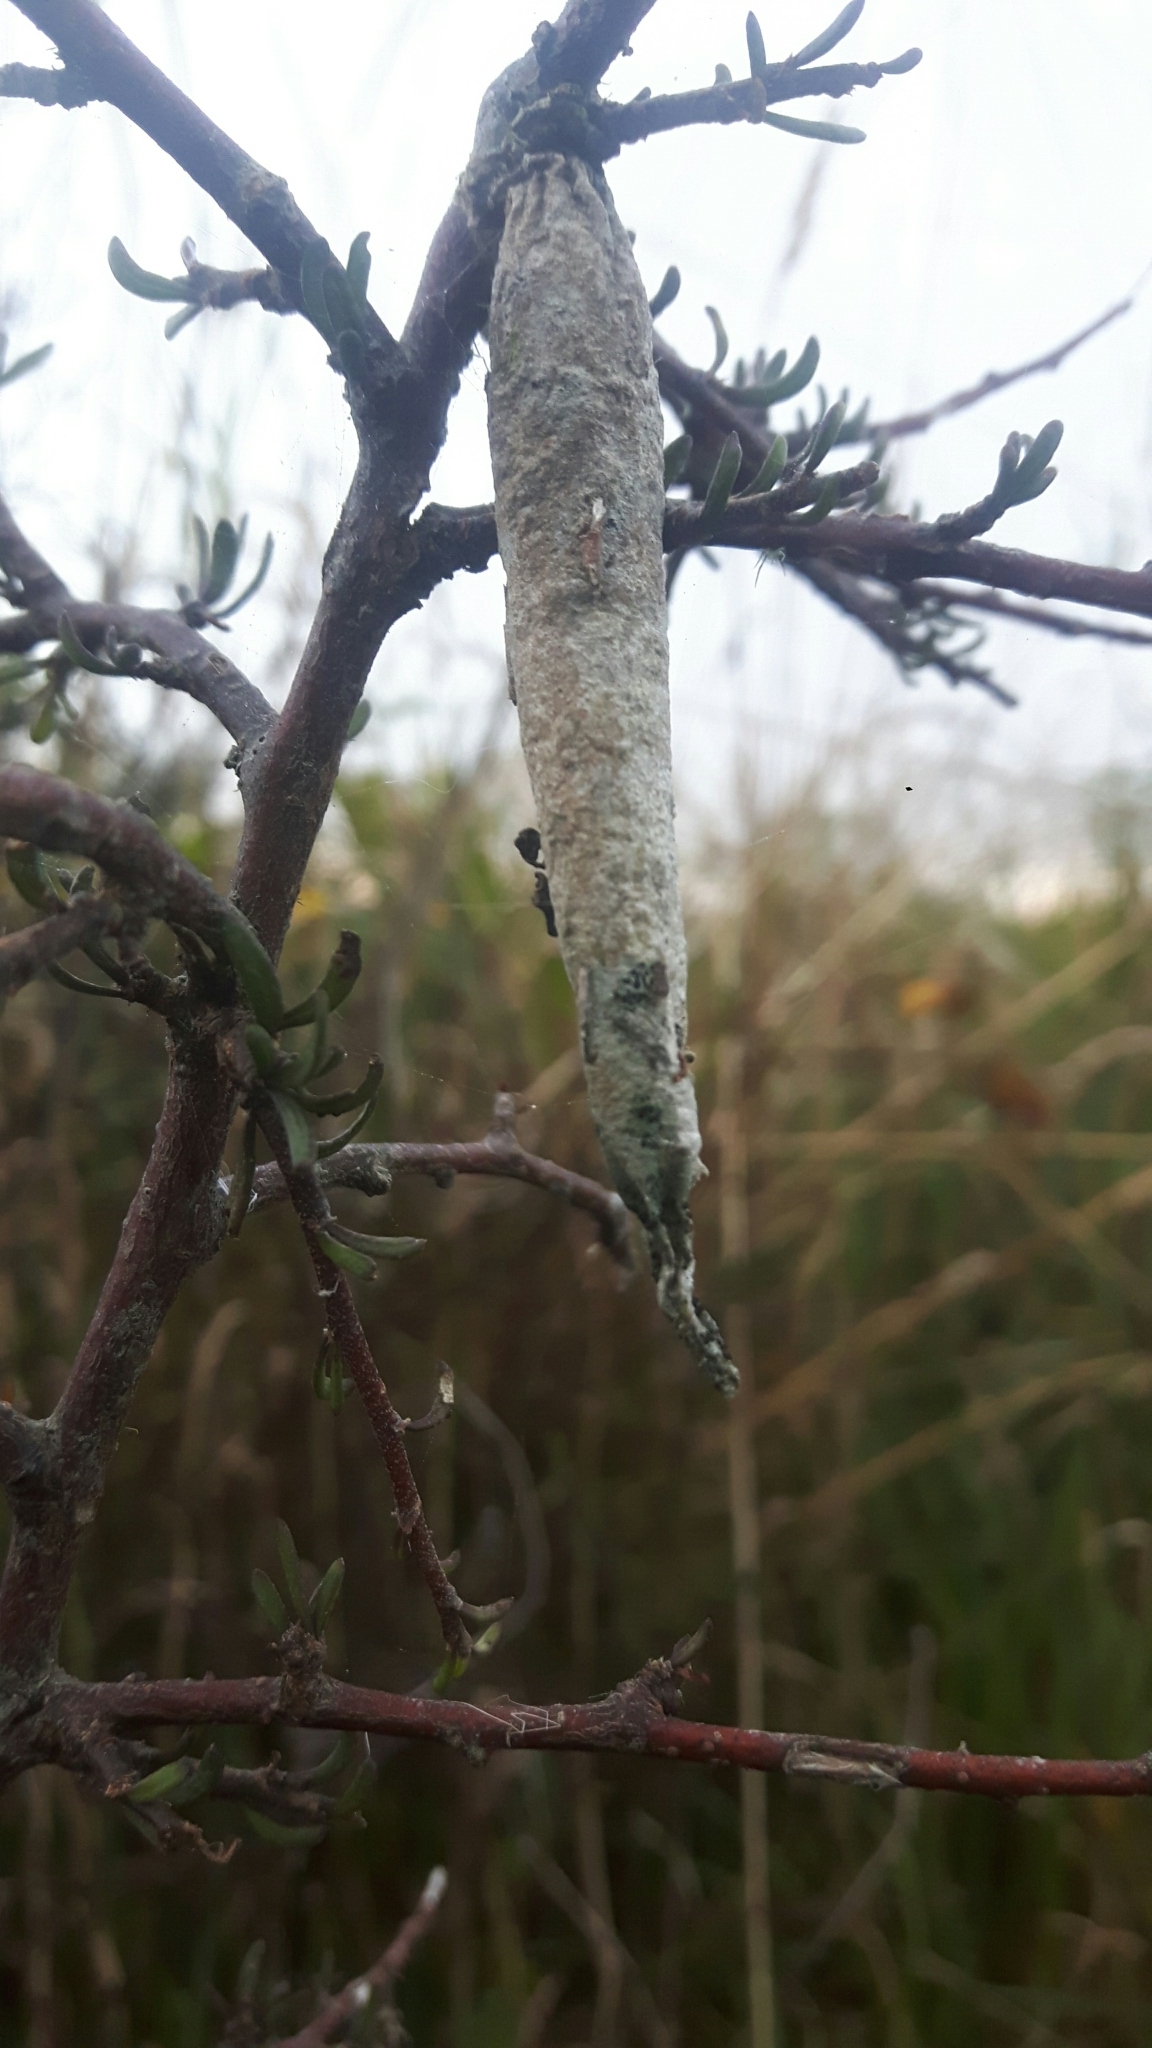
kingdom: Animalia
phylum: Arthropoda
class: Insecta
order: Lepidoptera
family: Psychidae
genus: Liothula
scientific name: Liothula omnivora
